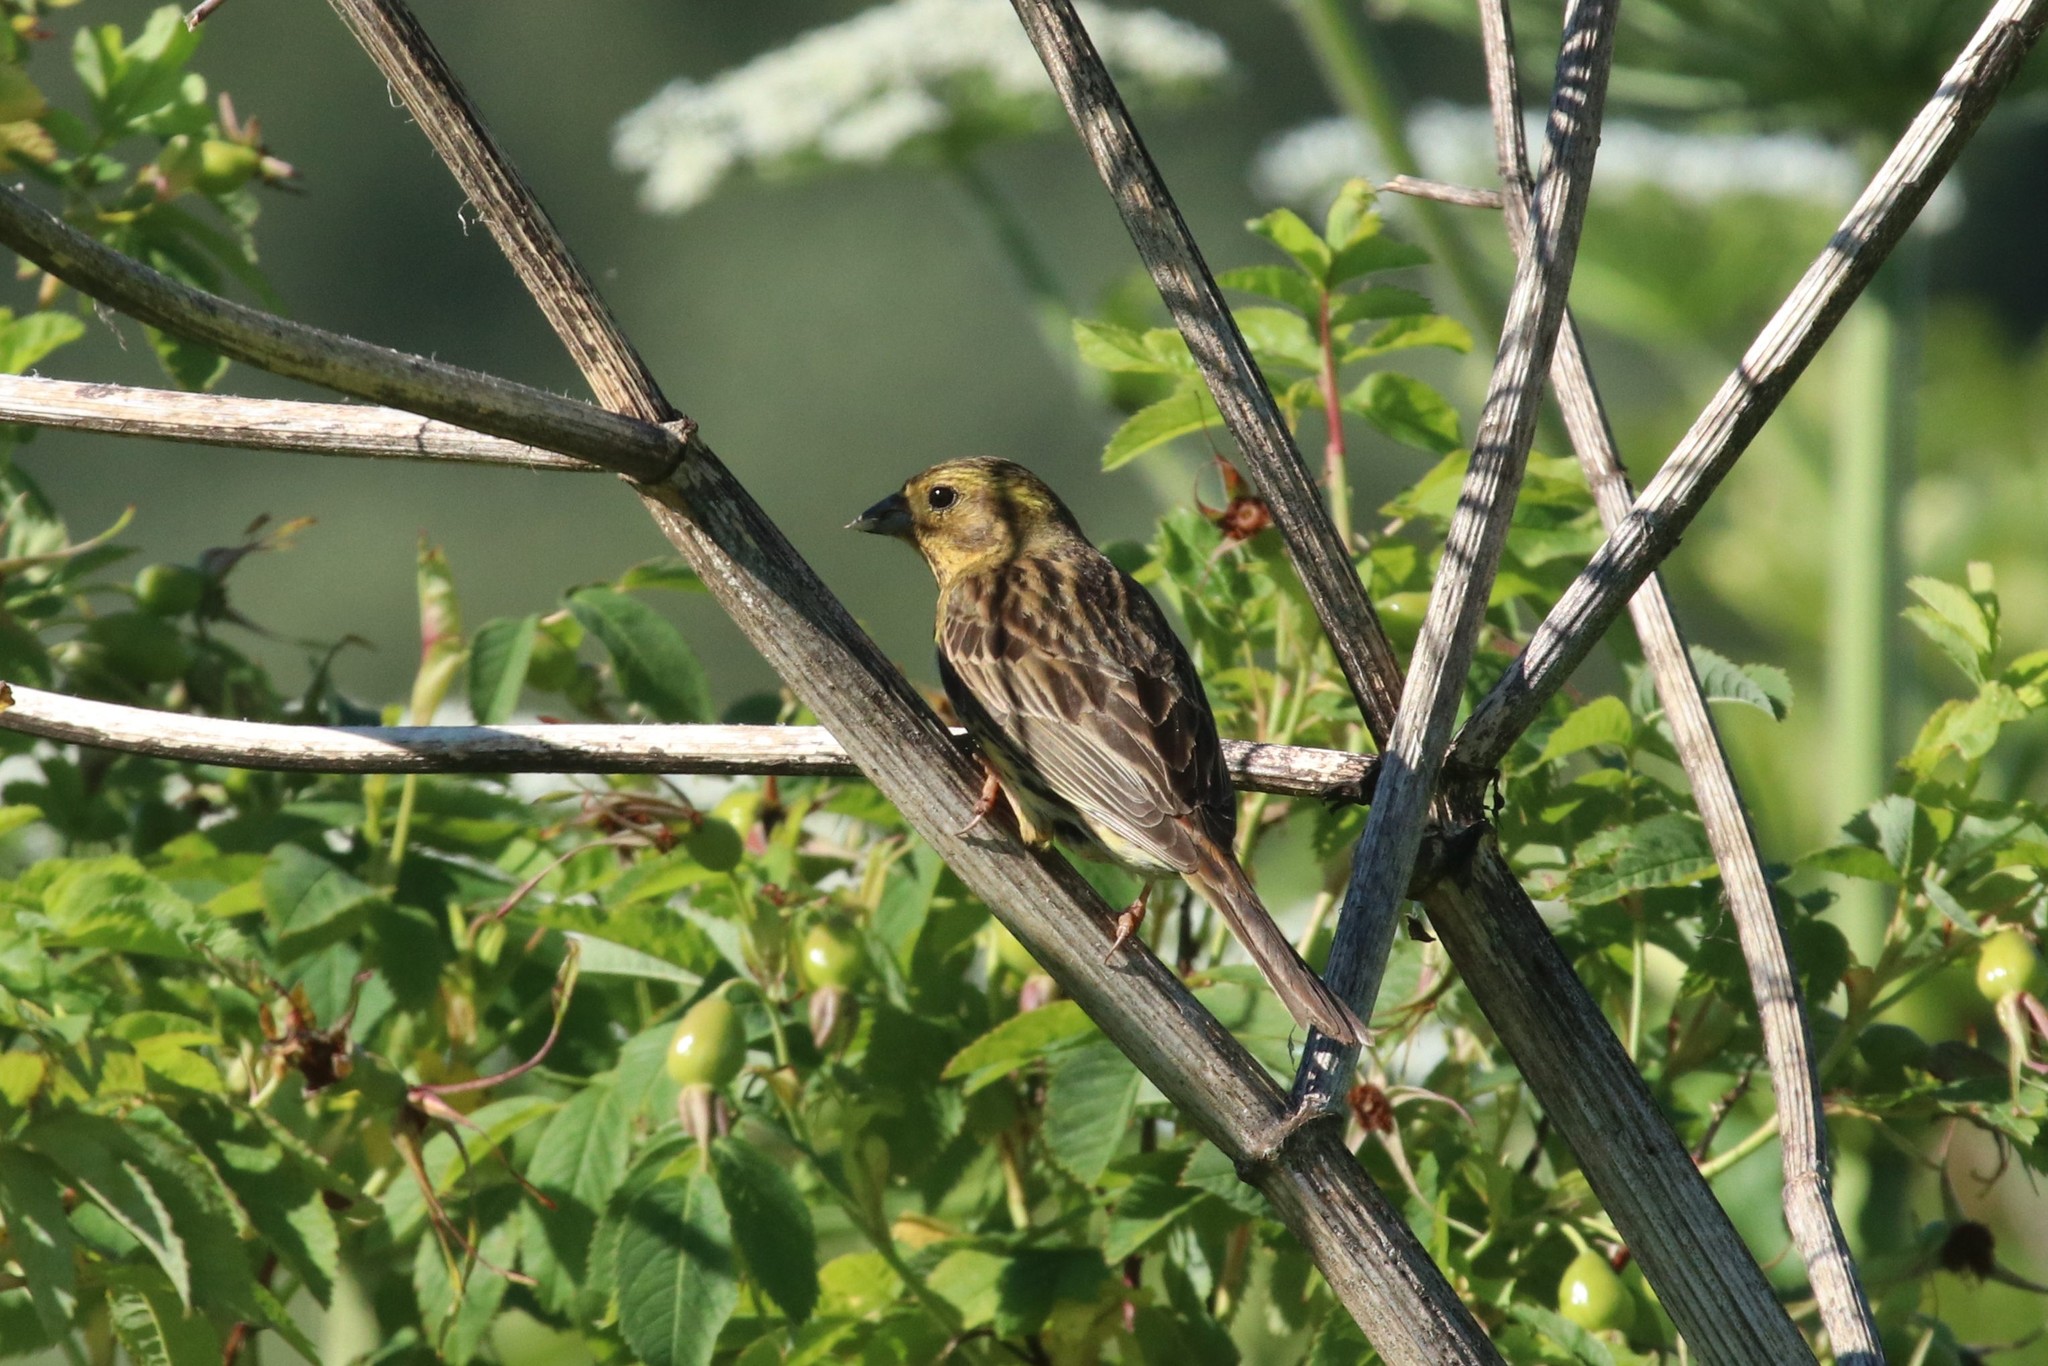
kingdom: Animalia
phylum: Chordata
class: Aves
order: Passeriformes
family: Emberizidae
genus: Emberiza
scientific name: Emberiza citrinella
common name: Yellowhammer
